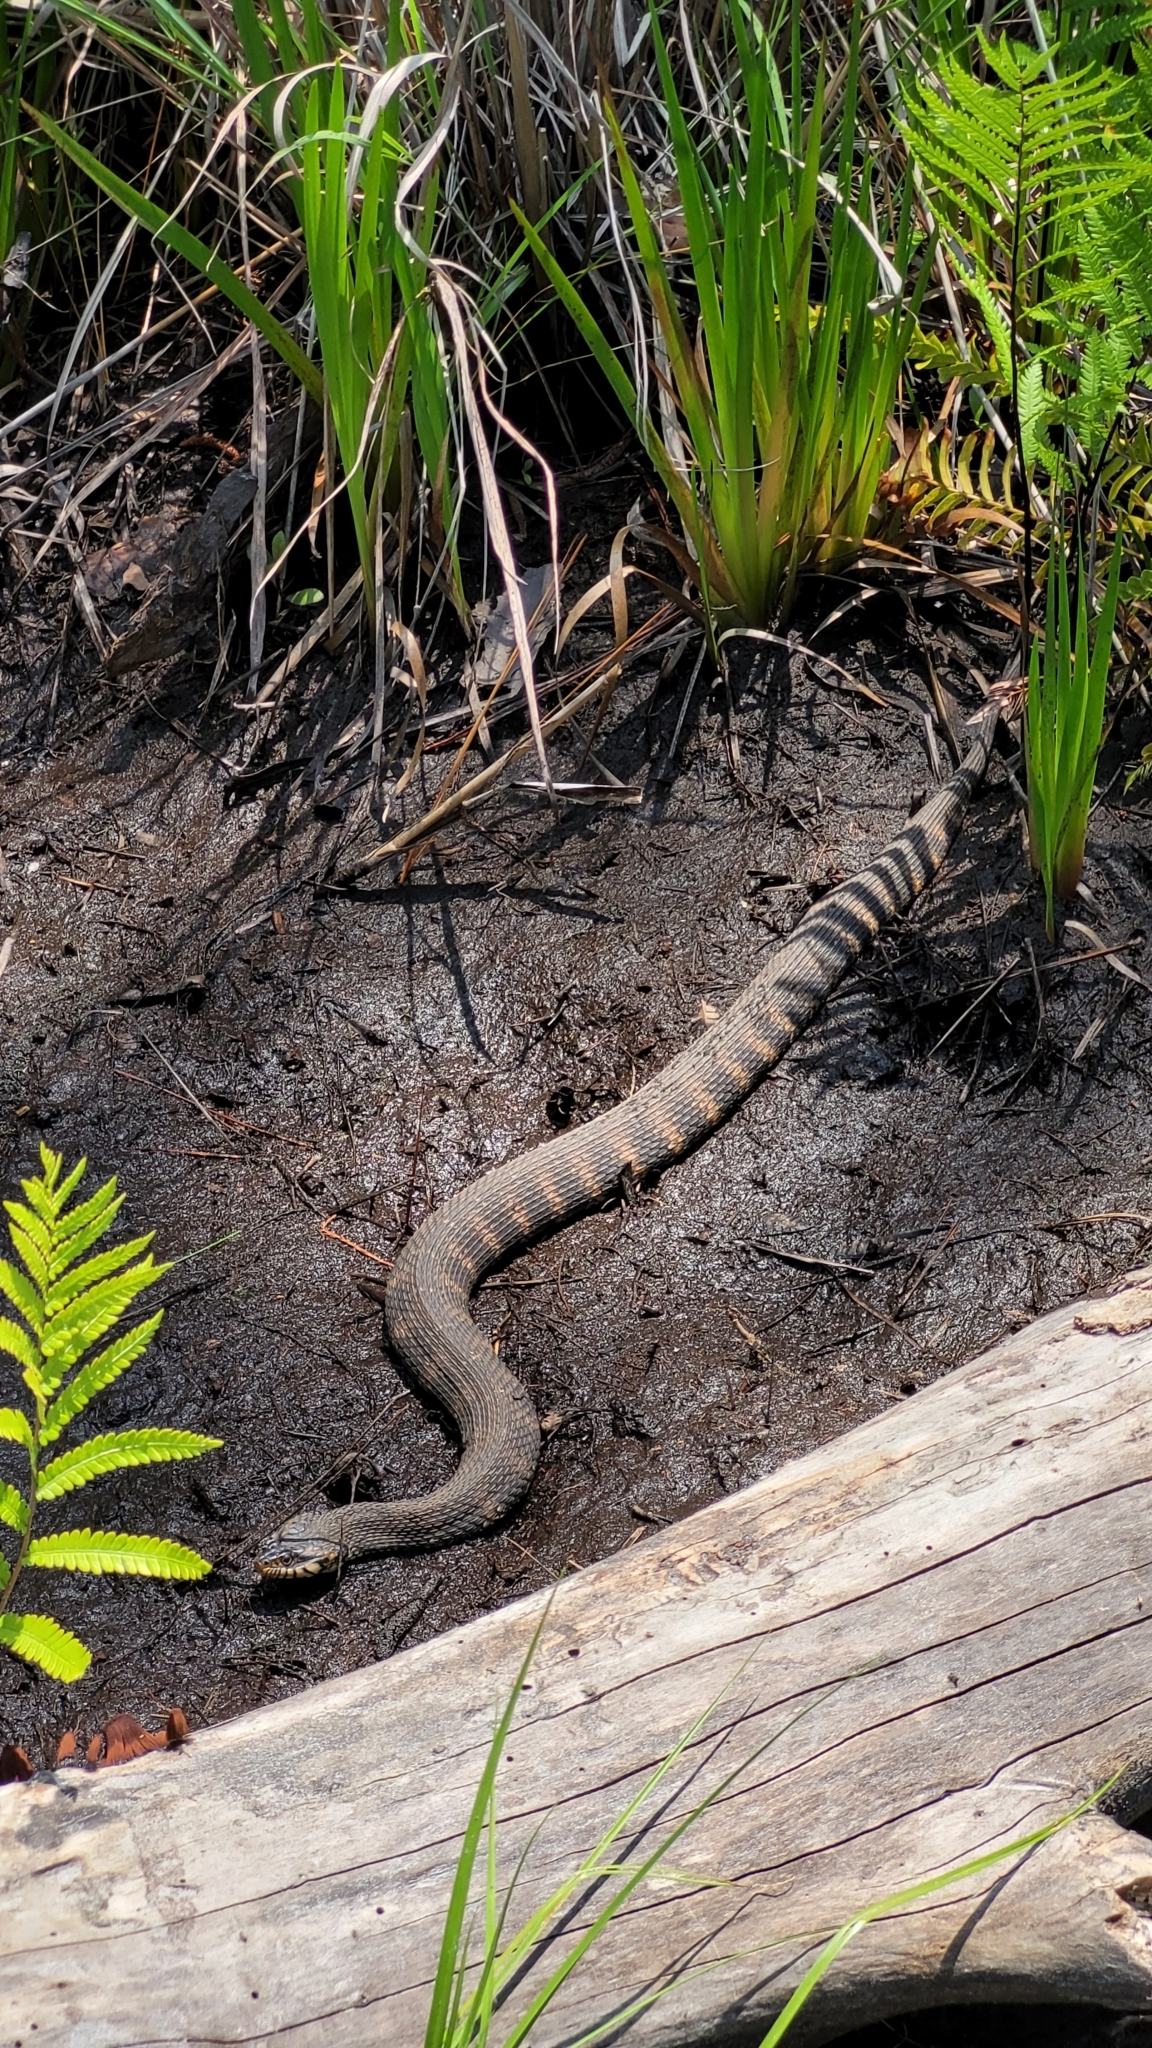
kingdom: Animalia
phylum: Chordata
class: Squamata
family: Colubridae
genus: Nerodia
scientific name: Nerodia fasciata
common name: Southern water snake
